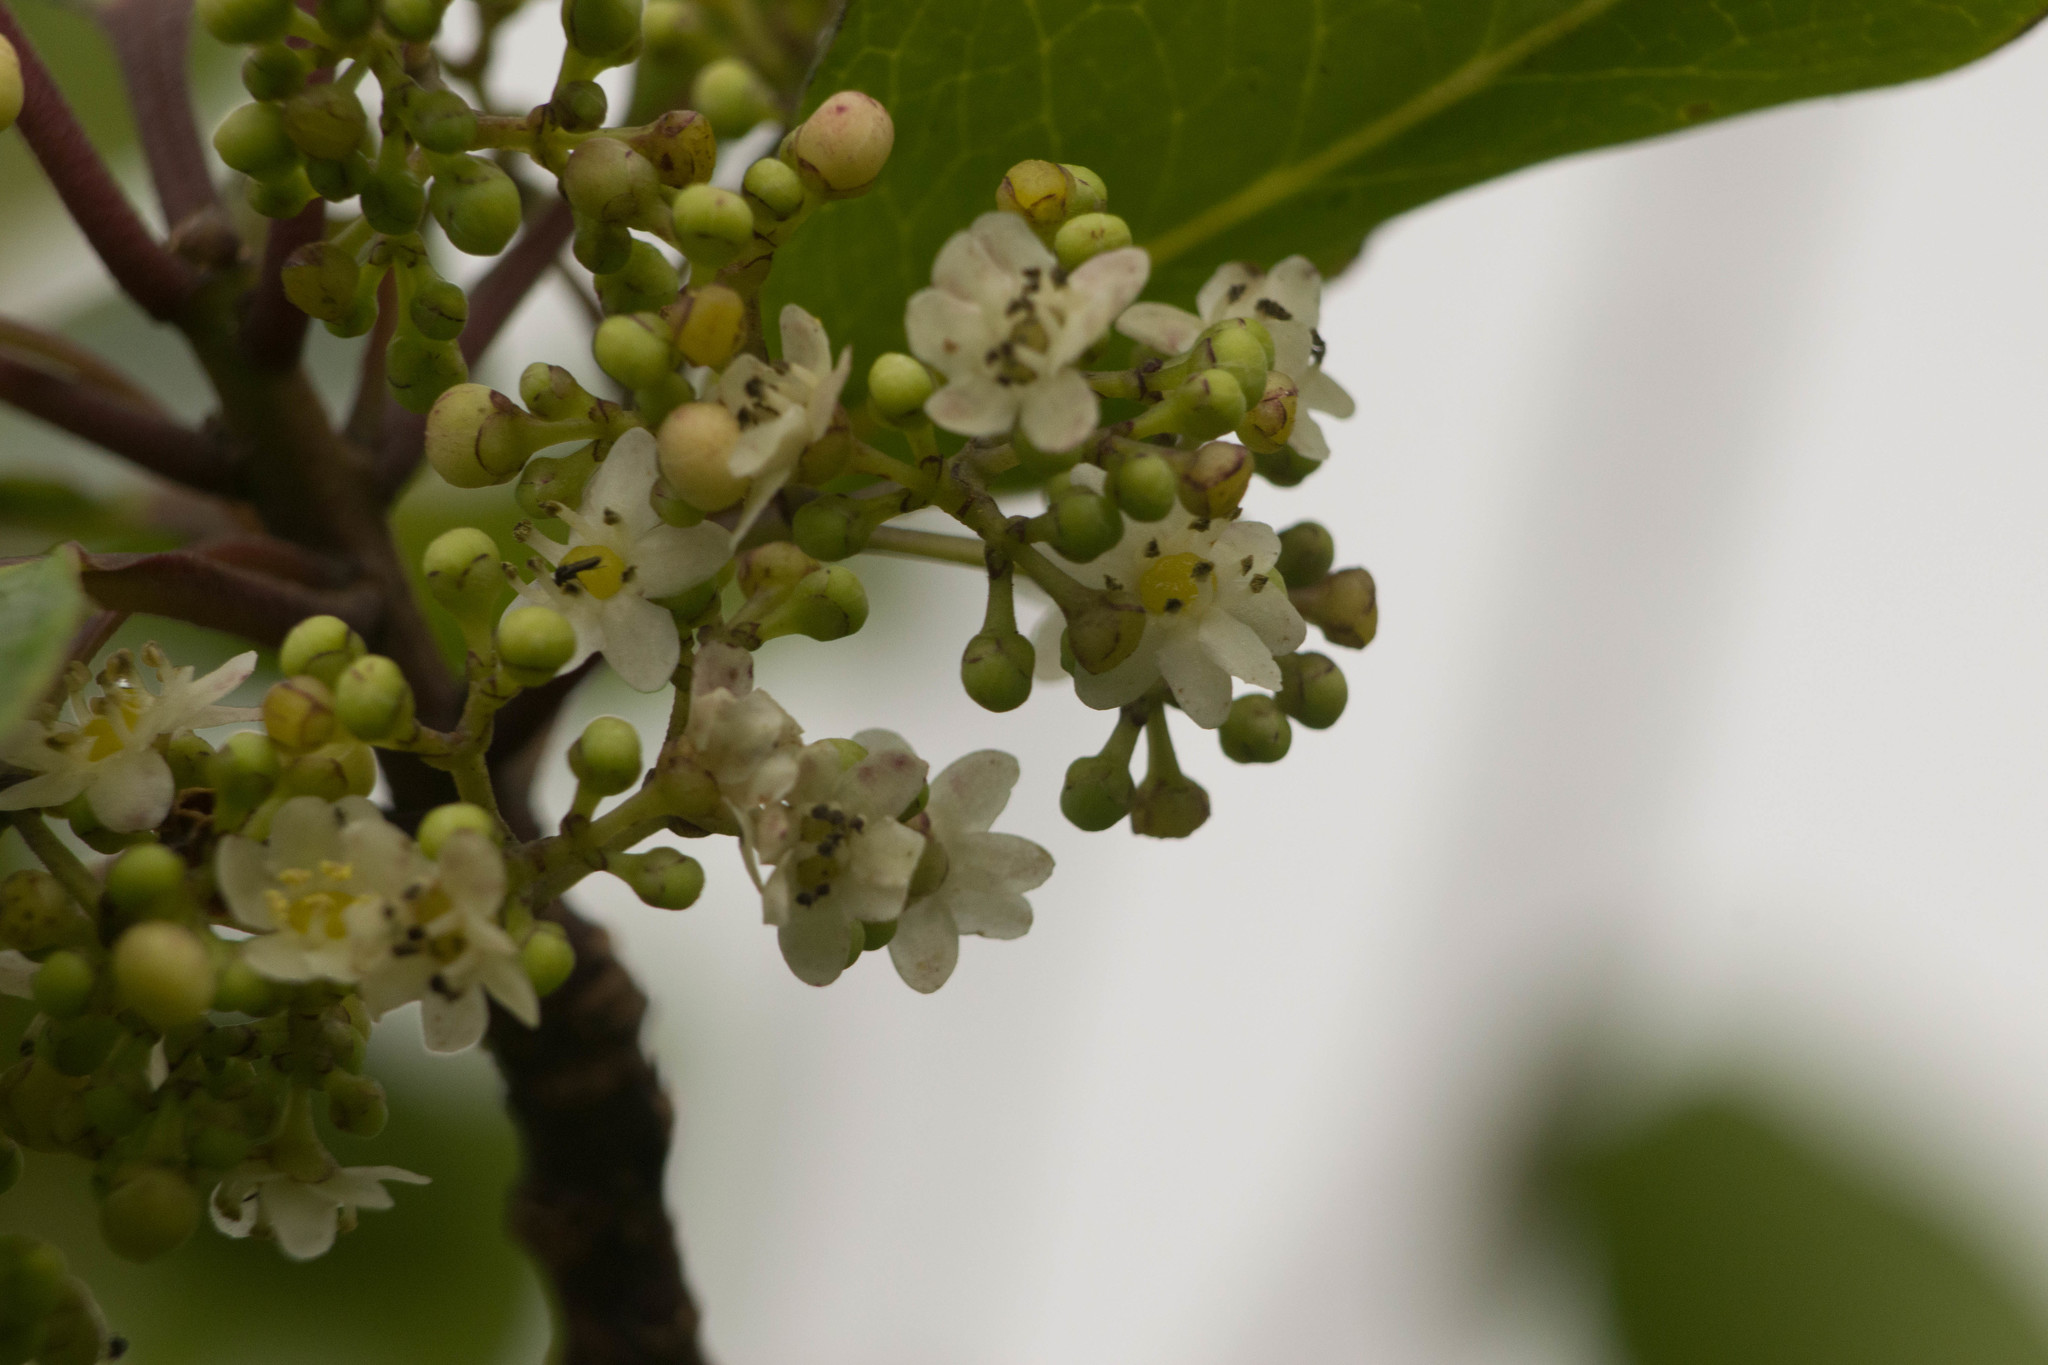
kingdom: Plantae
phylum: Tracheophyta
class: Magnoliopsida
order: Aquifoliales
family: Aquifoliaceae
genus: Ilex
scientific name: Ilex anomala
